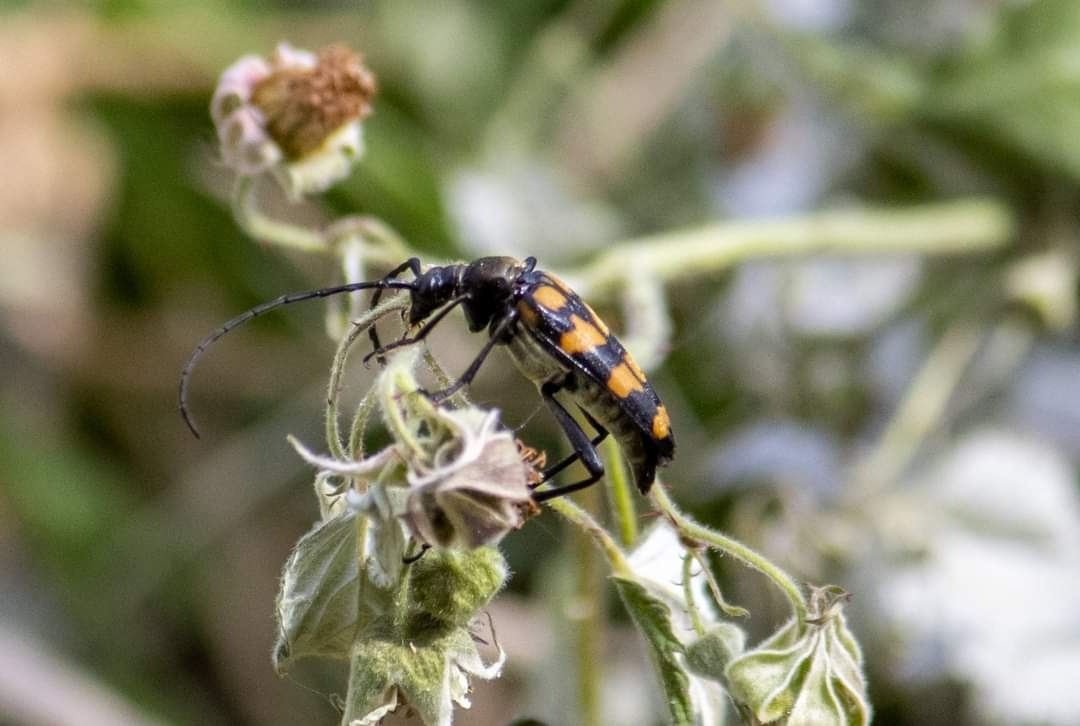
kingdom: Animalia
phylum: Arthropoda
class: Insecta
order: Coleoptera
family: Cerambycidae
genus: Leptura
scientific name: Leptura quadrifasciata
